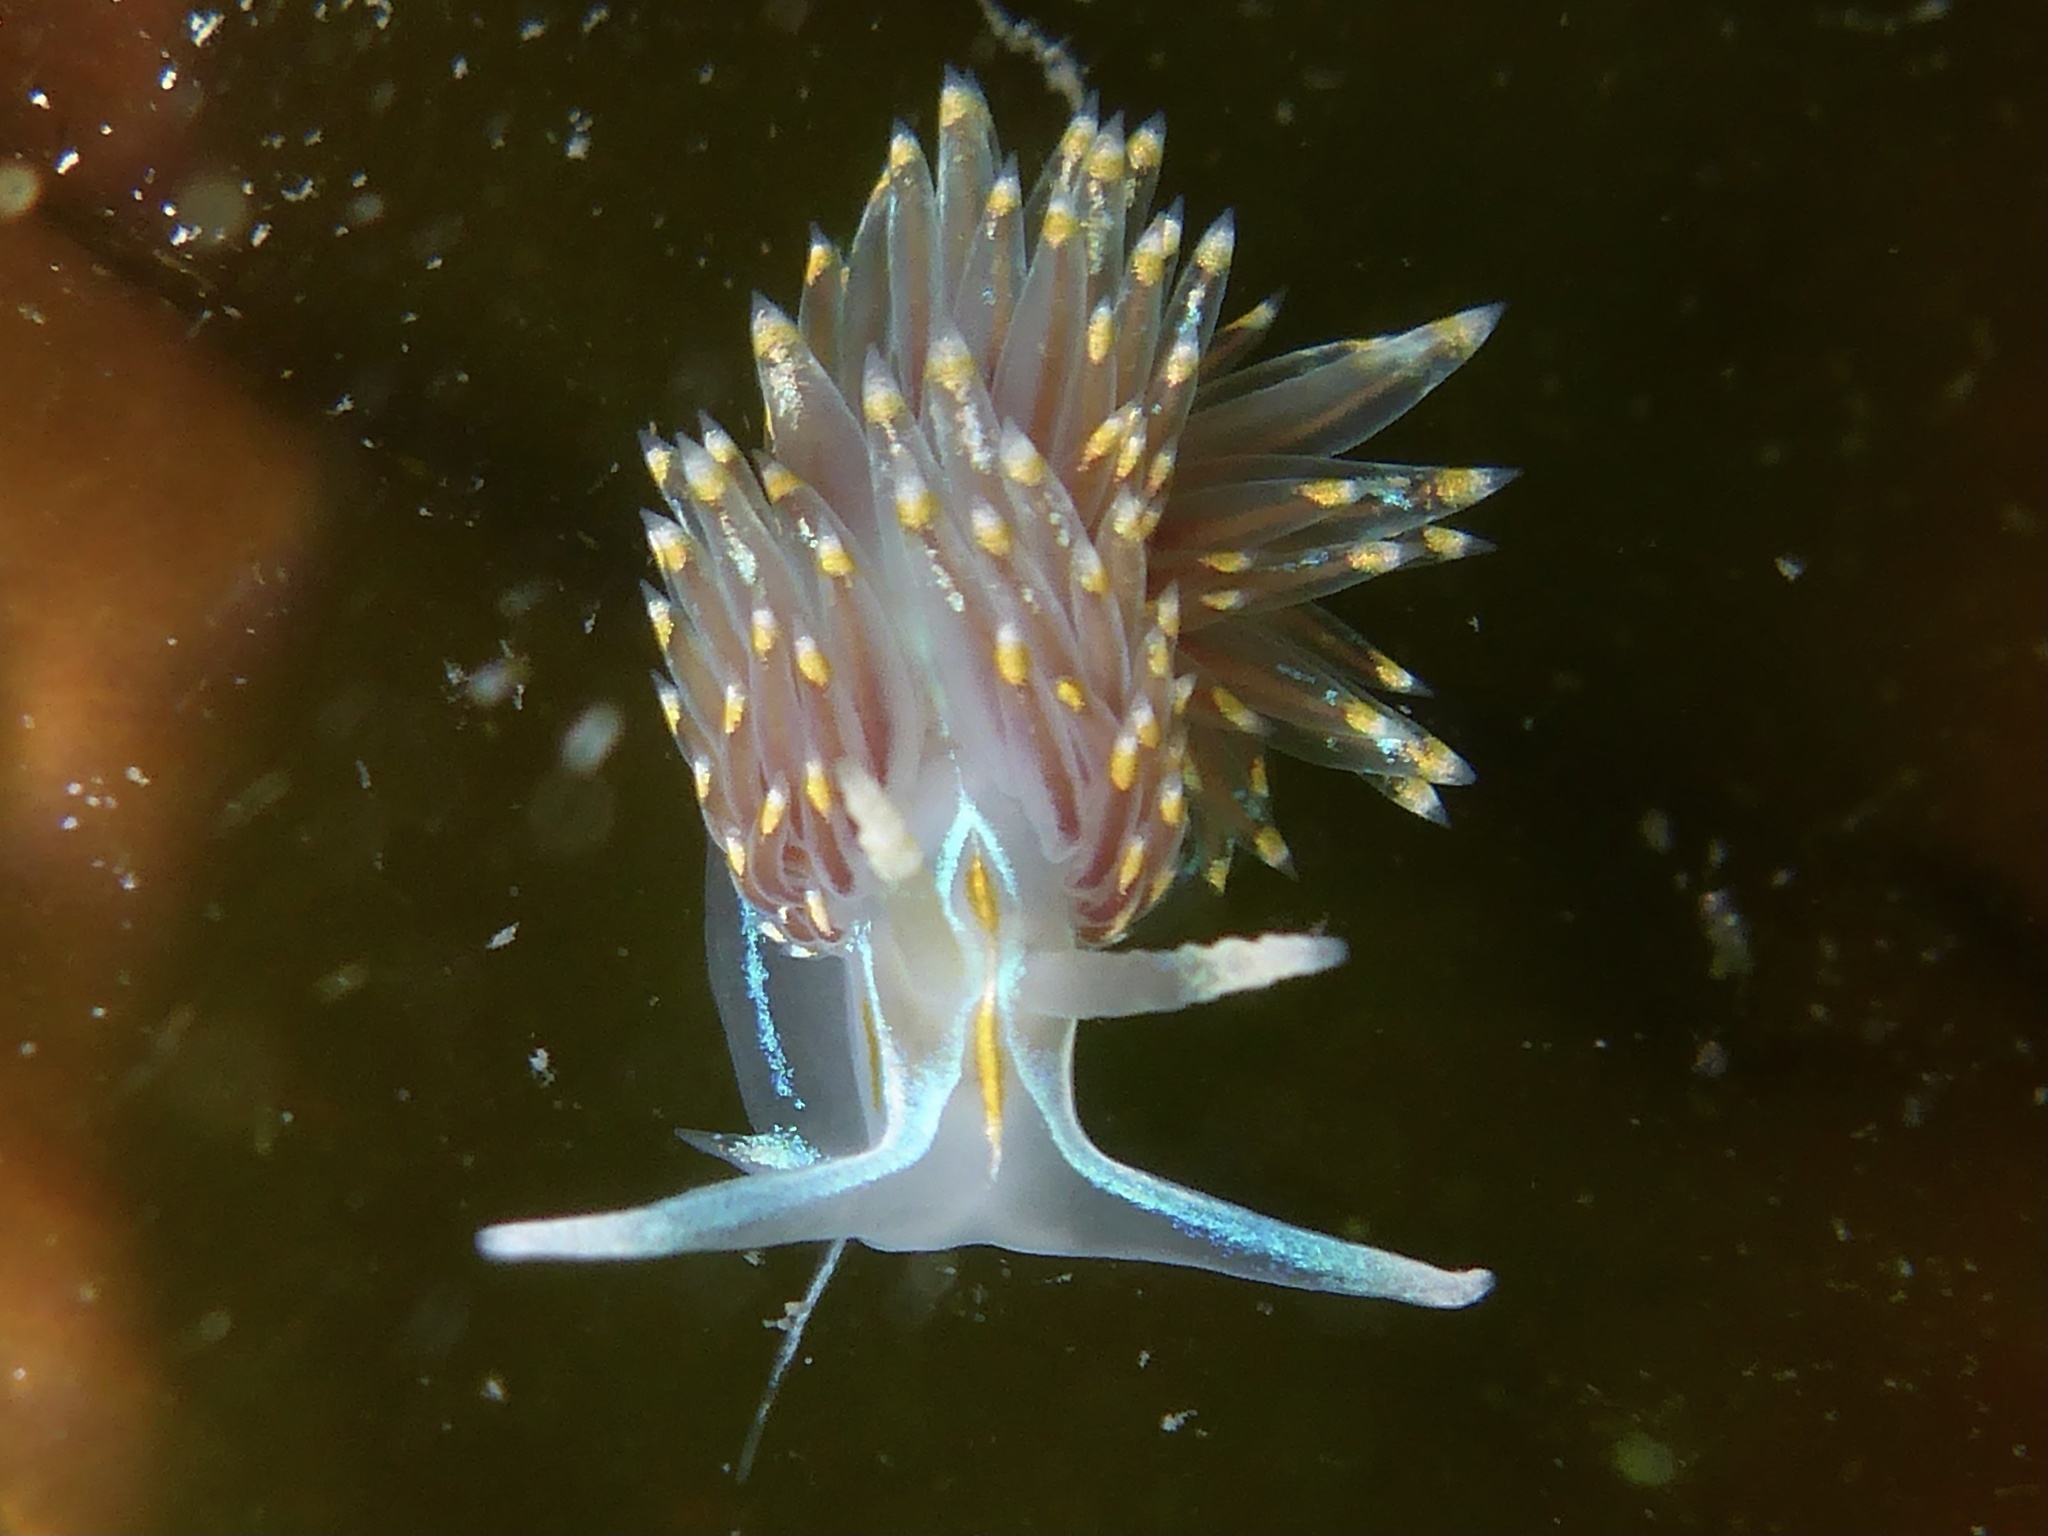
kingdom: Animalia
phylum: Mollusca
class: Gastropoda
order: Nudibranchia
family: Myrrhinidae
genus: Hermissenda
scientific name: Hermissenda opalescens
